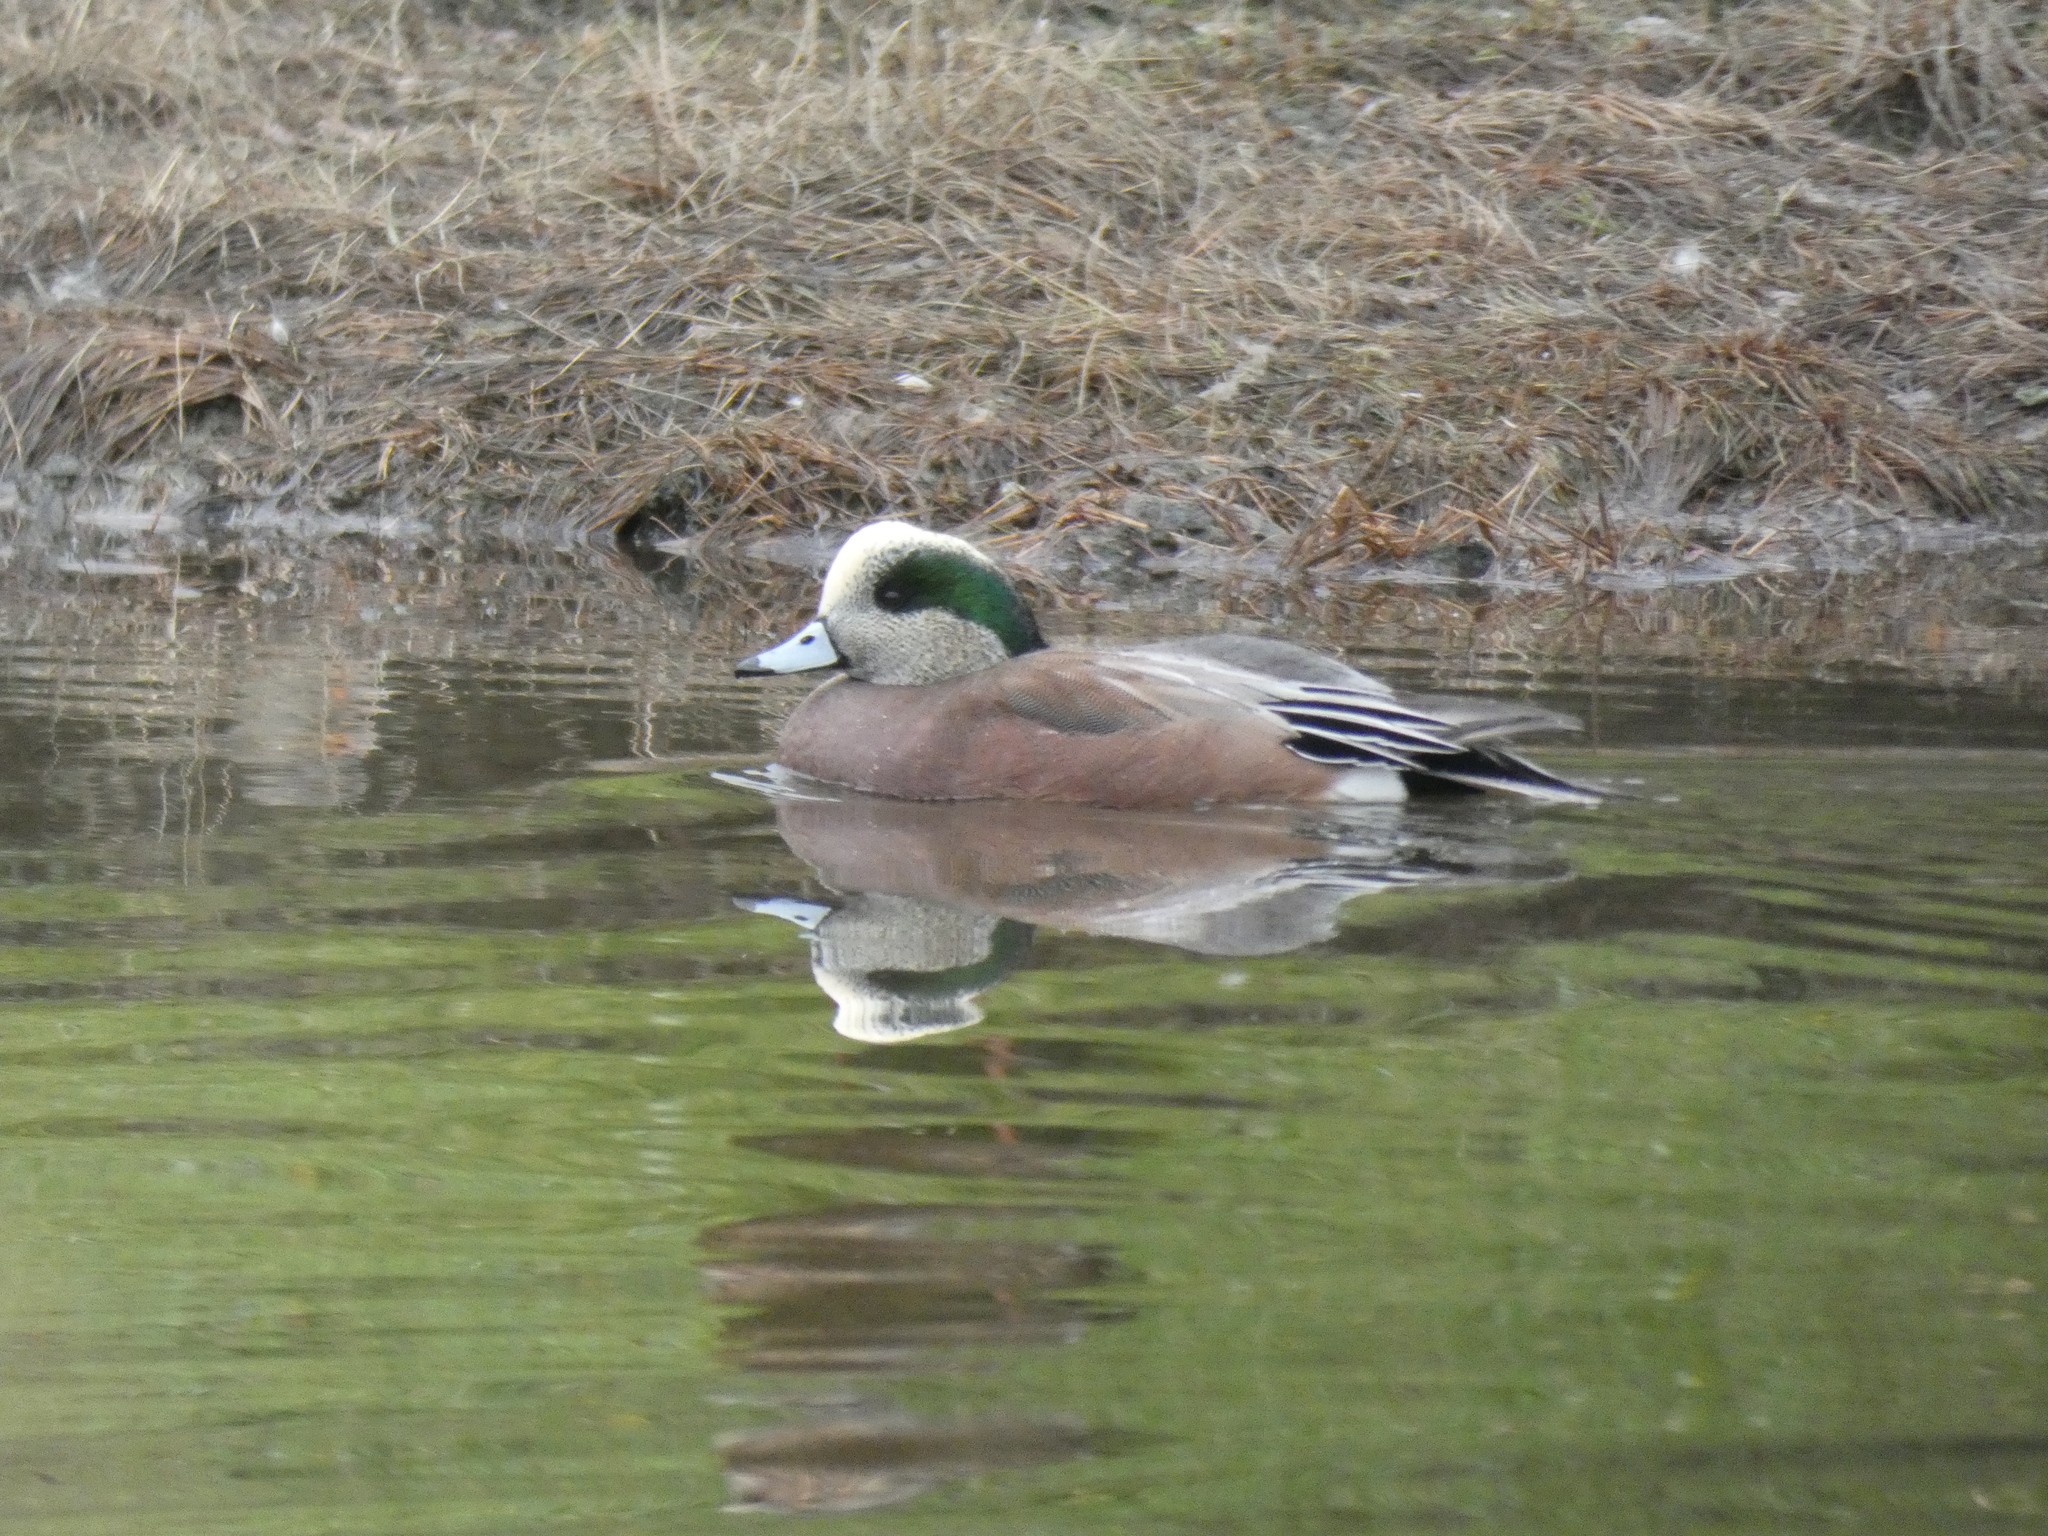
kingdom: Animalia
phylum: Chordata
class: Aves
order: Anseriformes
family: Anatidae
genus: Mareca
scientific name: Mareca americana
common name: American wigeon
